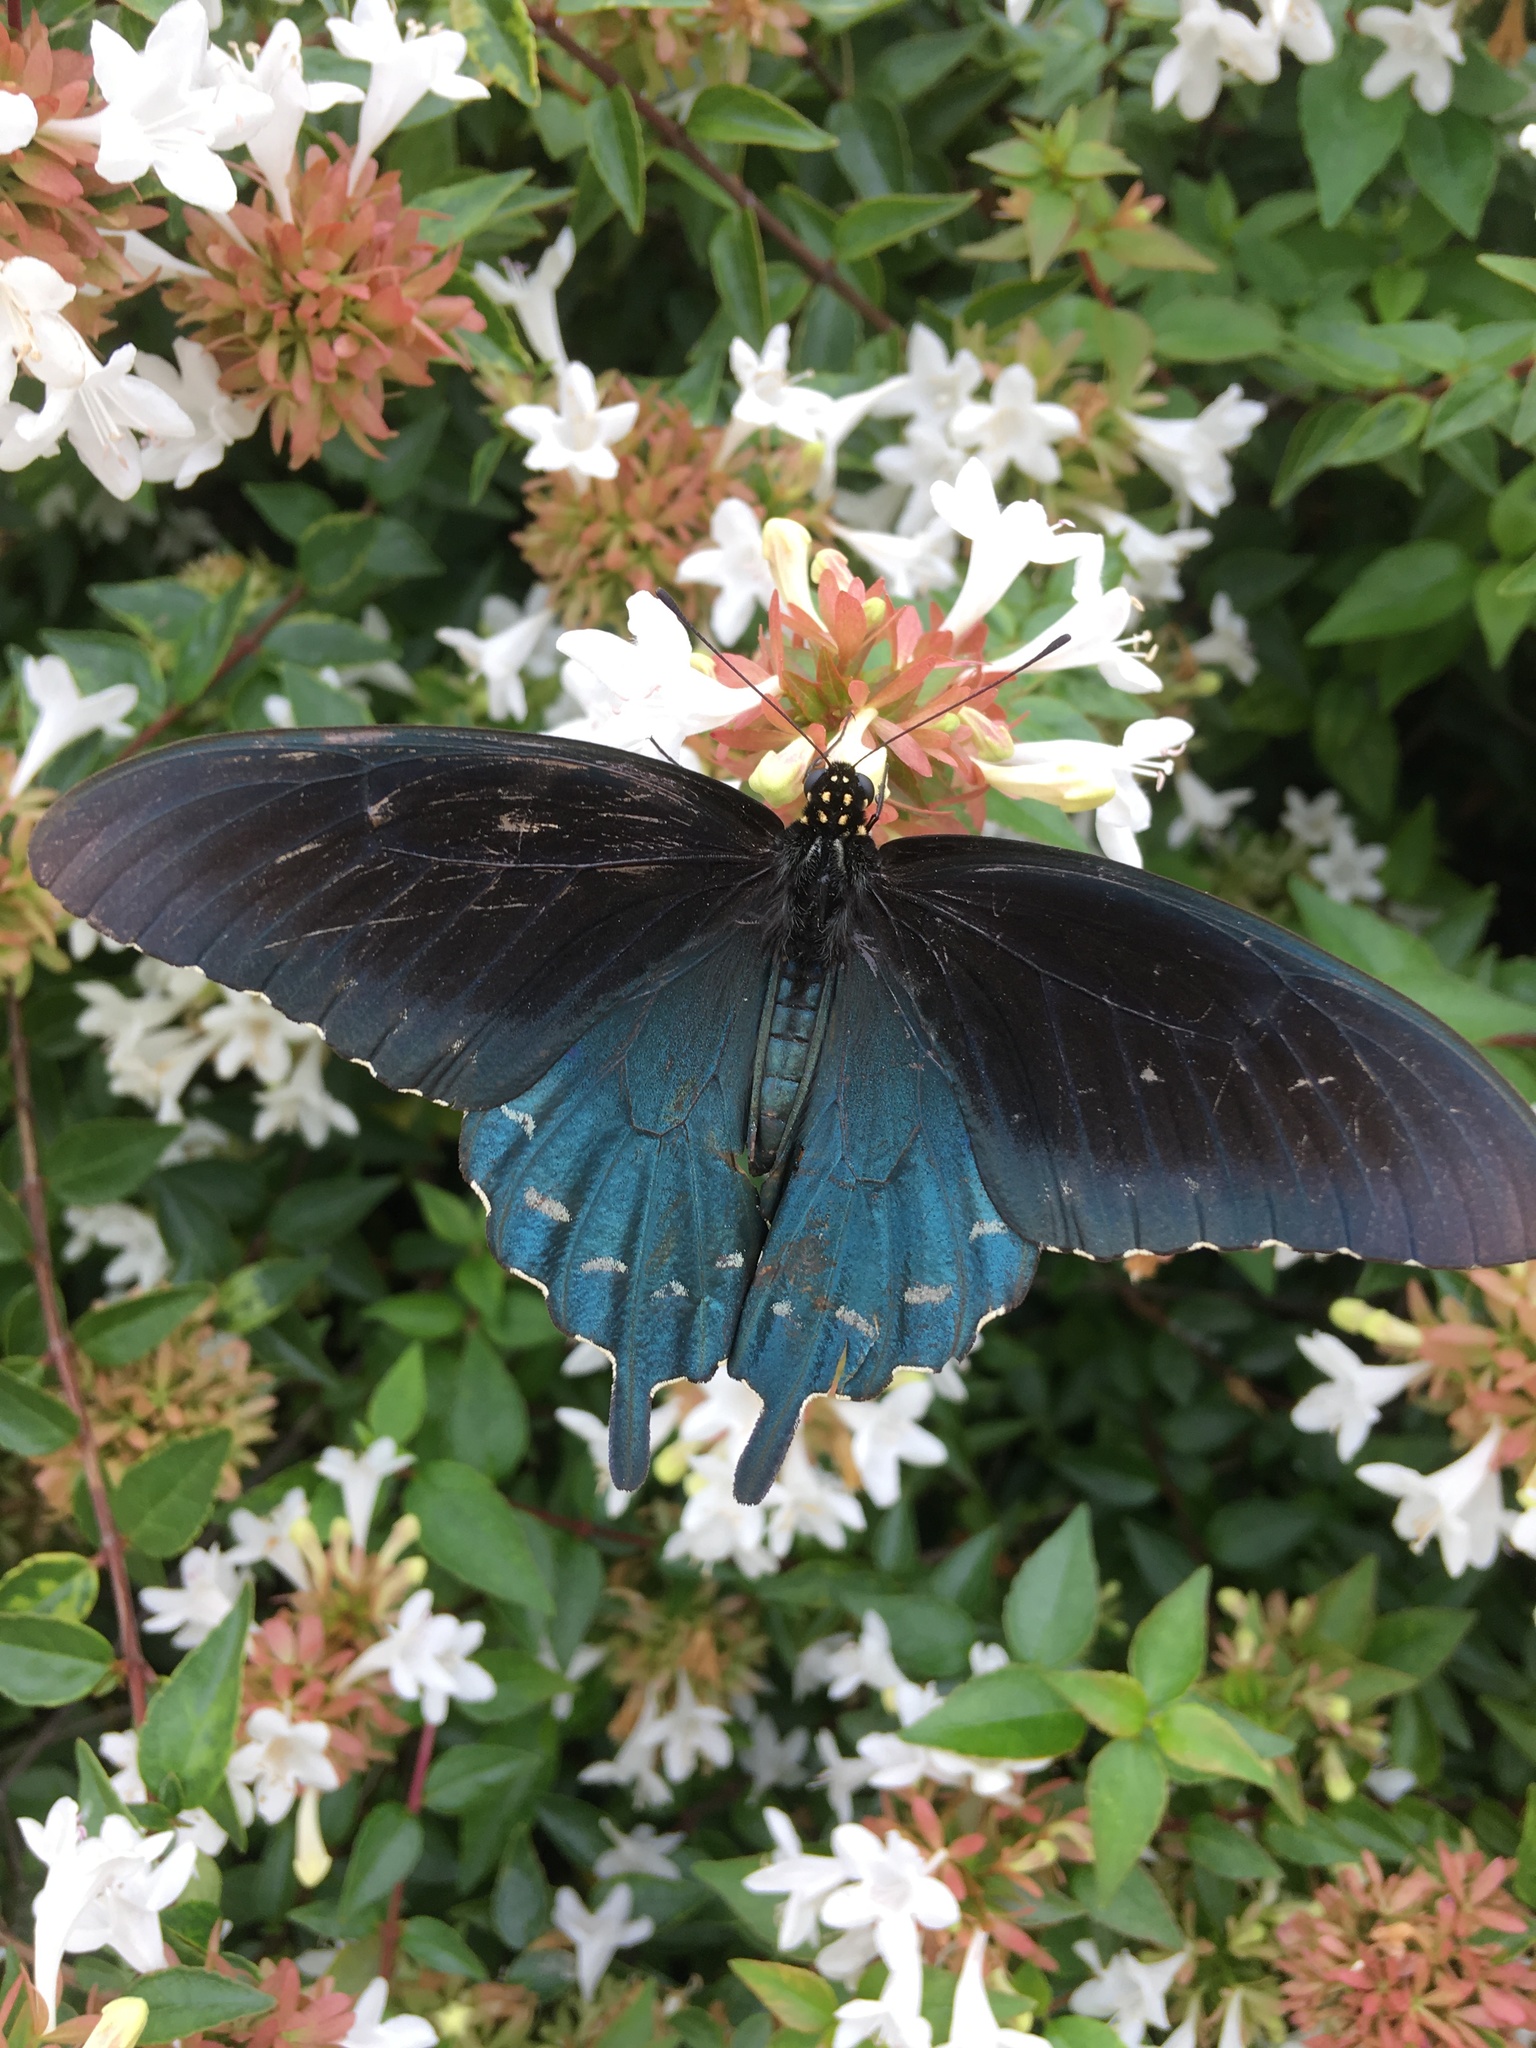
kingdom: Animalia
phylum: Arthropoda
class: Insecta
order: Lepidoptera
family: Papilionidae
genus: Battus
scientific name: Battus philenor
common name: Pipevine swallowtail
